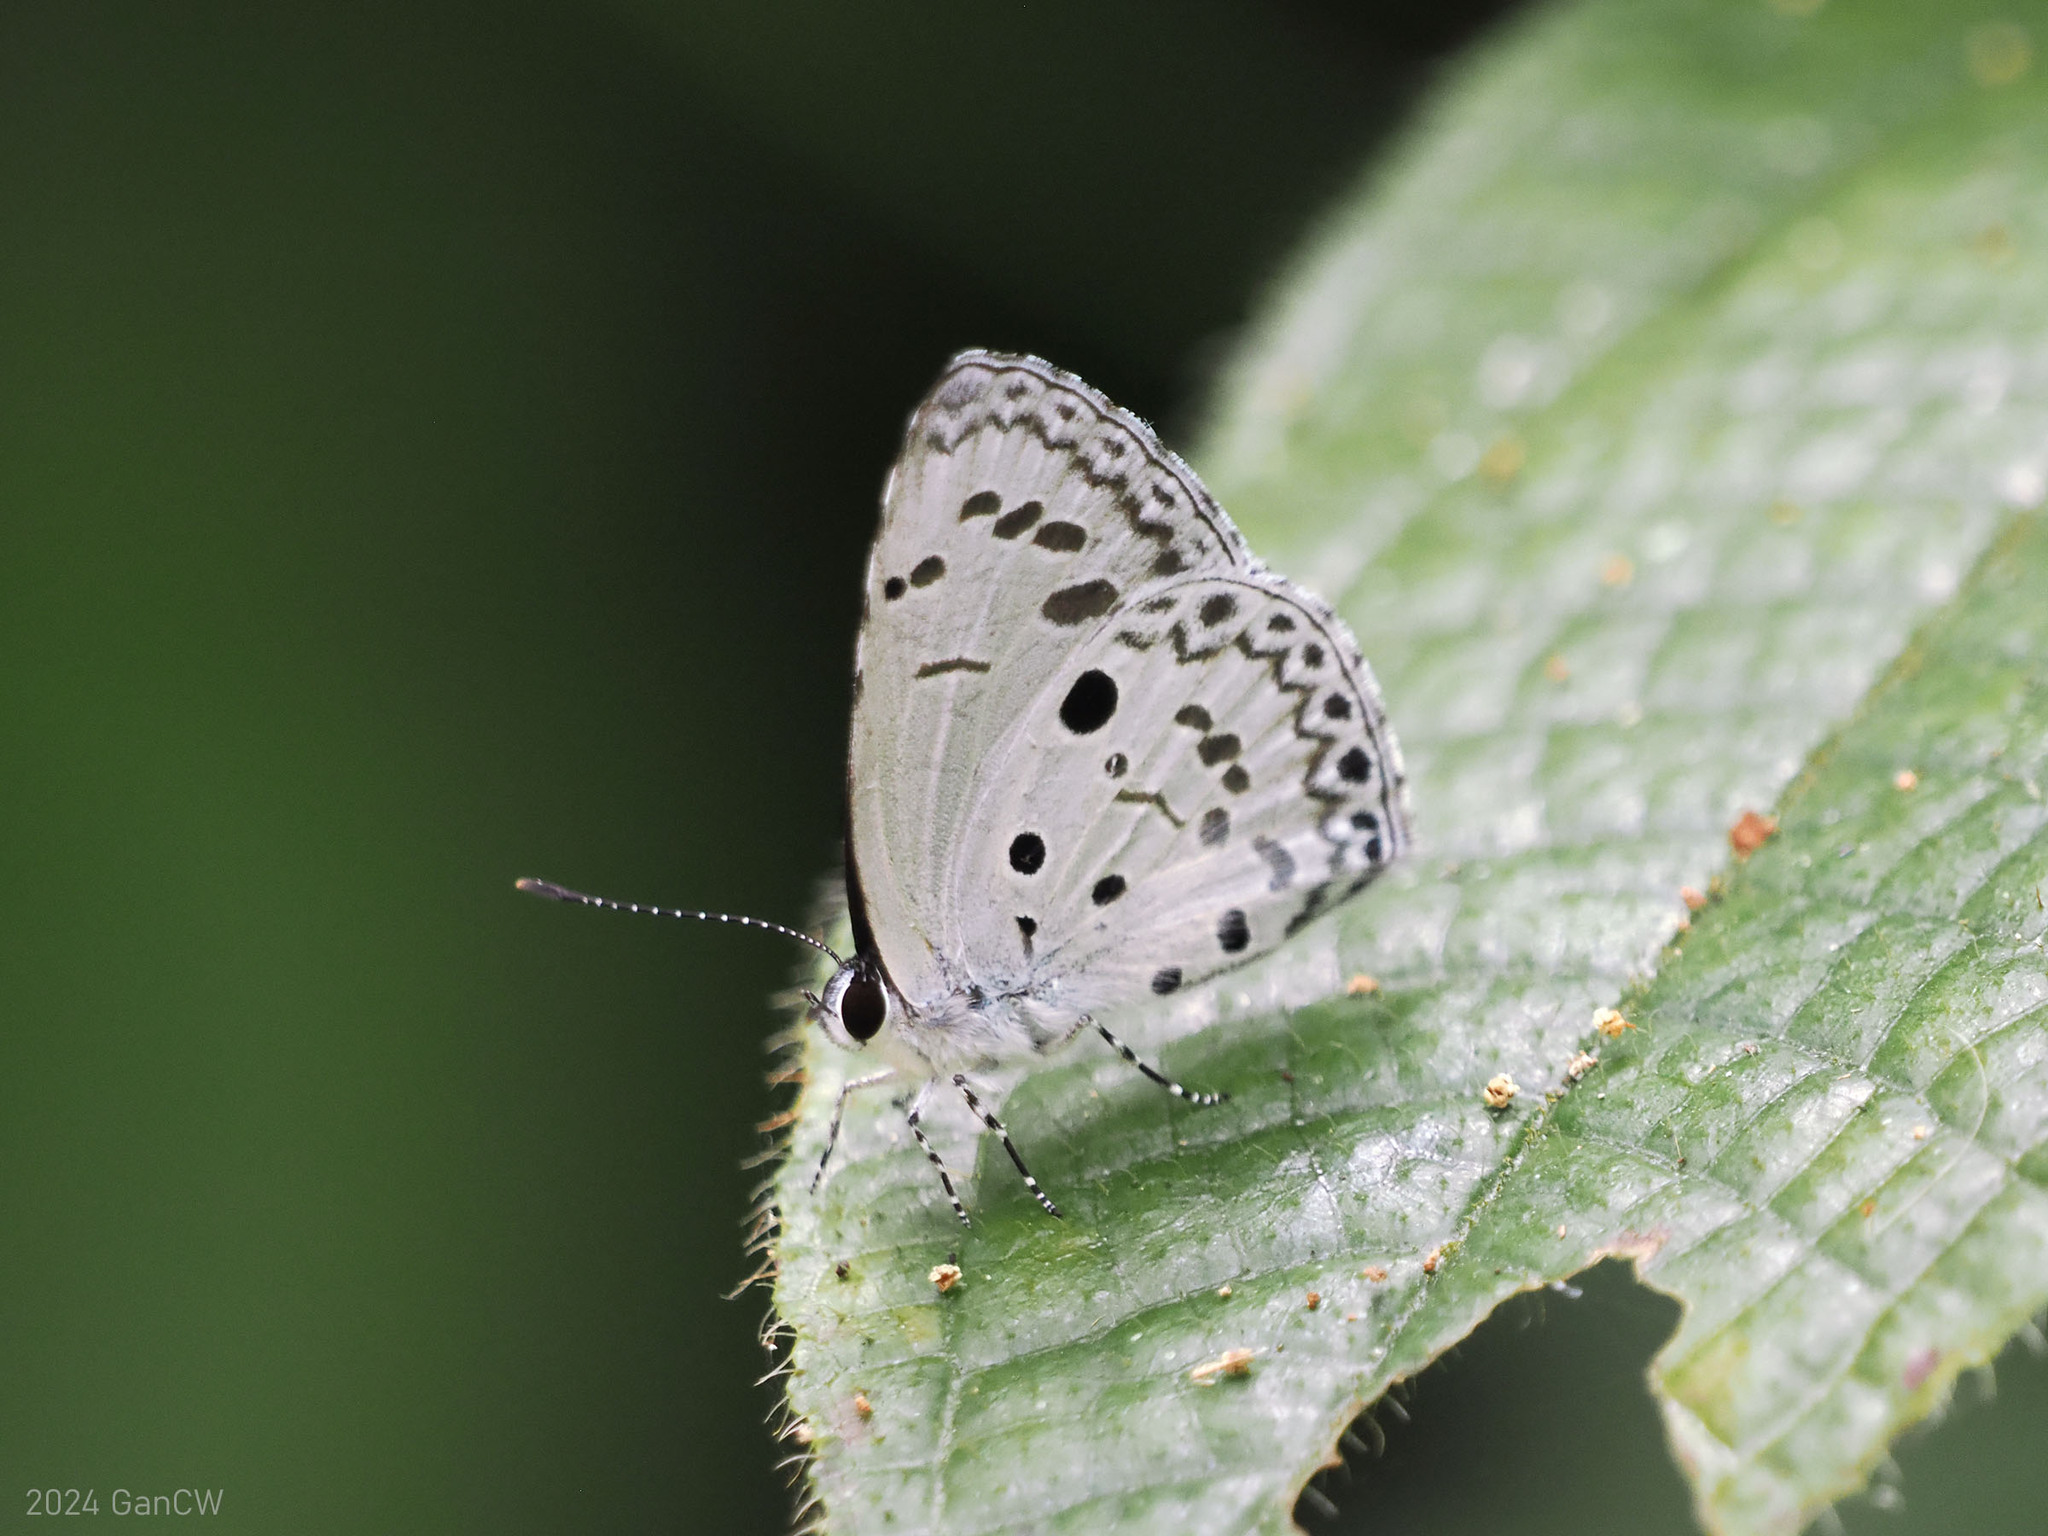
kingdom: Animalia
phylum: Arthropoda
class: Insecta
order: Lepidoptera
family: Lycaenidae
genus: Acytolepis
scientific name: Acytolepis puspa
